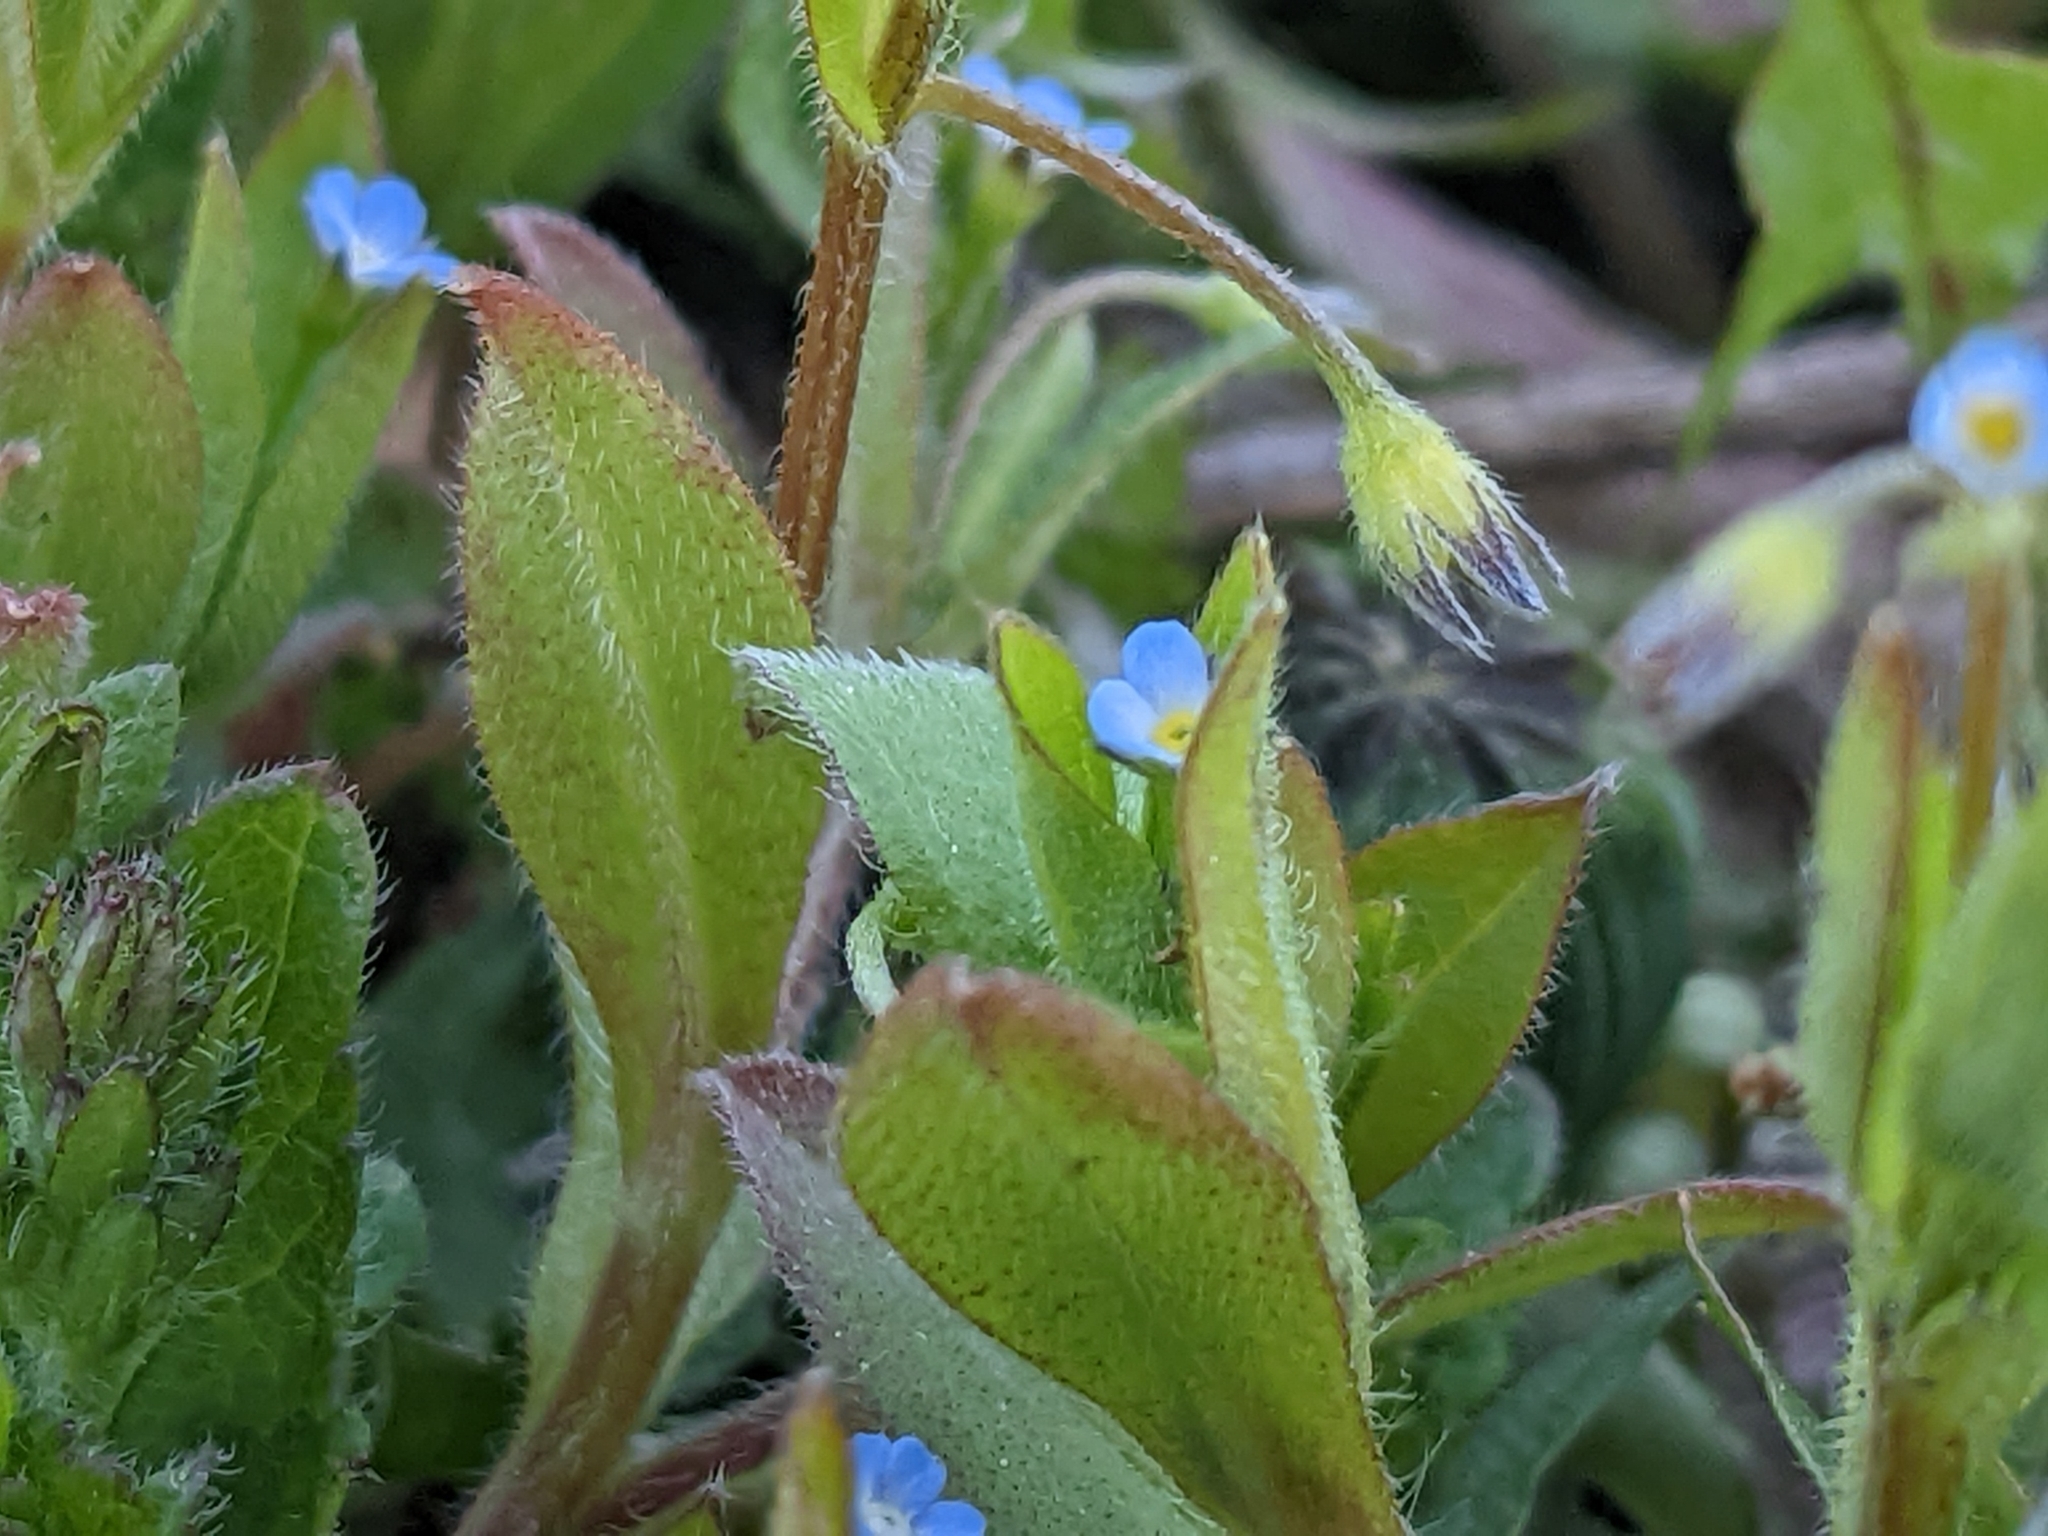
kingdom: Plantae
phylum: Tracheophyta
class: Magnoliopsida
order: Boraginales
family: Boraginaceae
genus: Myosotis
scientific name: Myosotis sparsiflora
